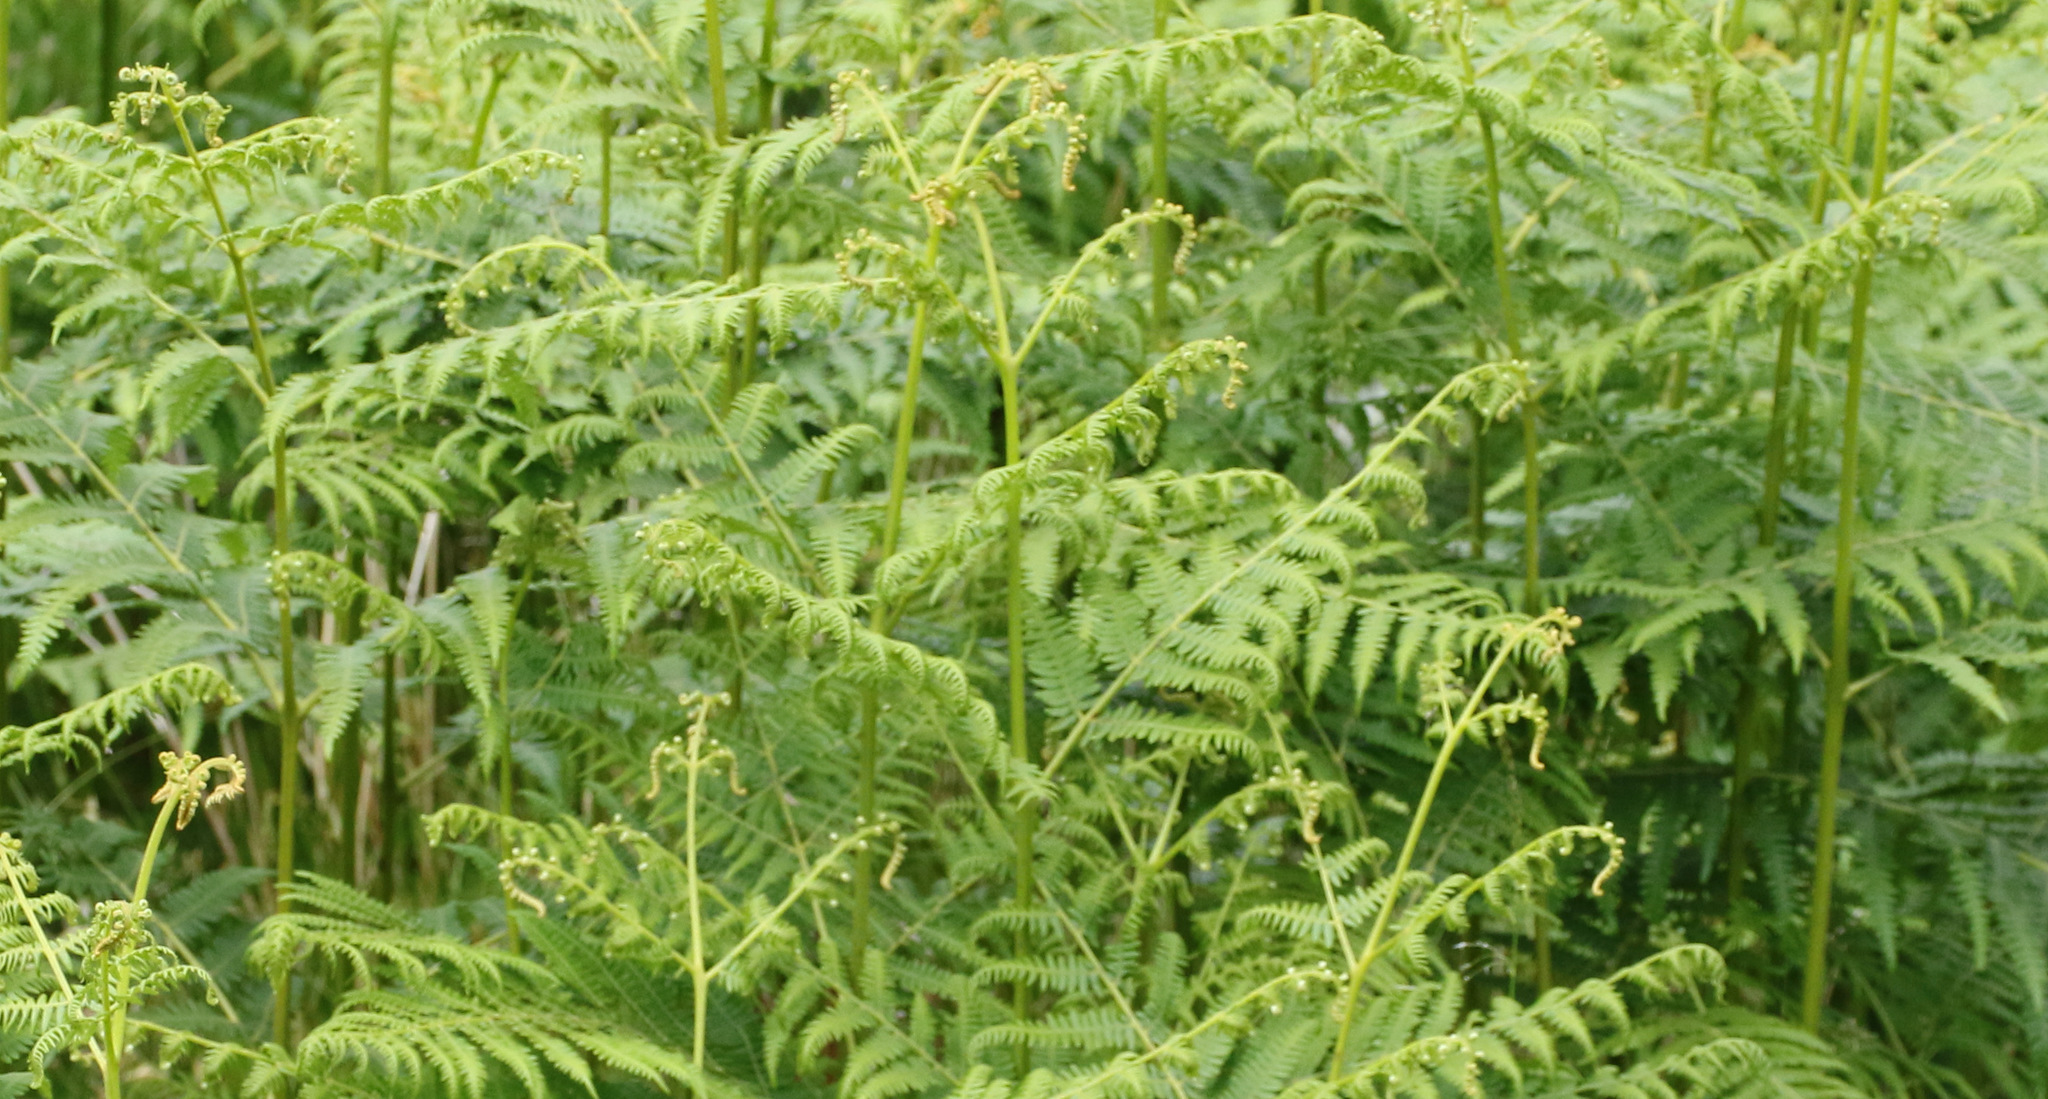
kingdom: Plantae
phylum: Tracheophyta
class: Polypodiopsida
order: Polypodiales
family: Dennstaedtiaceae
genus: Pteridium
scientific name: Pteridium aquilinum
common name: Bracken
